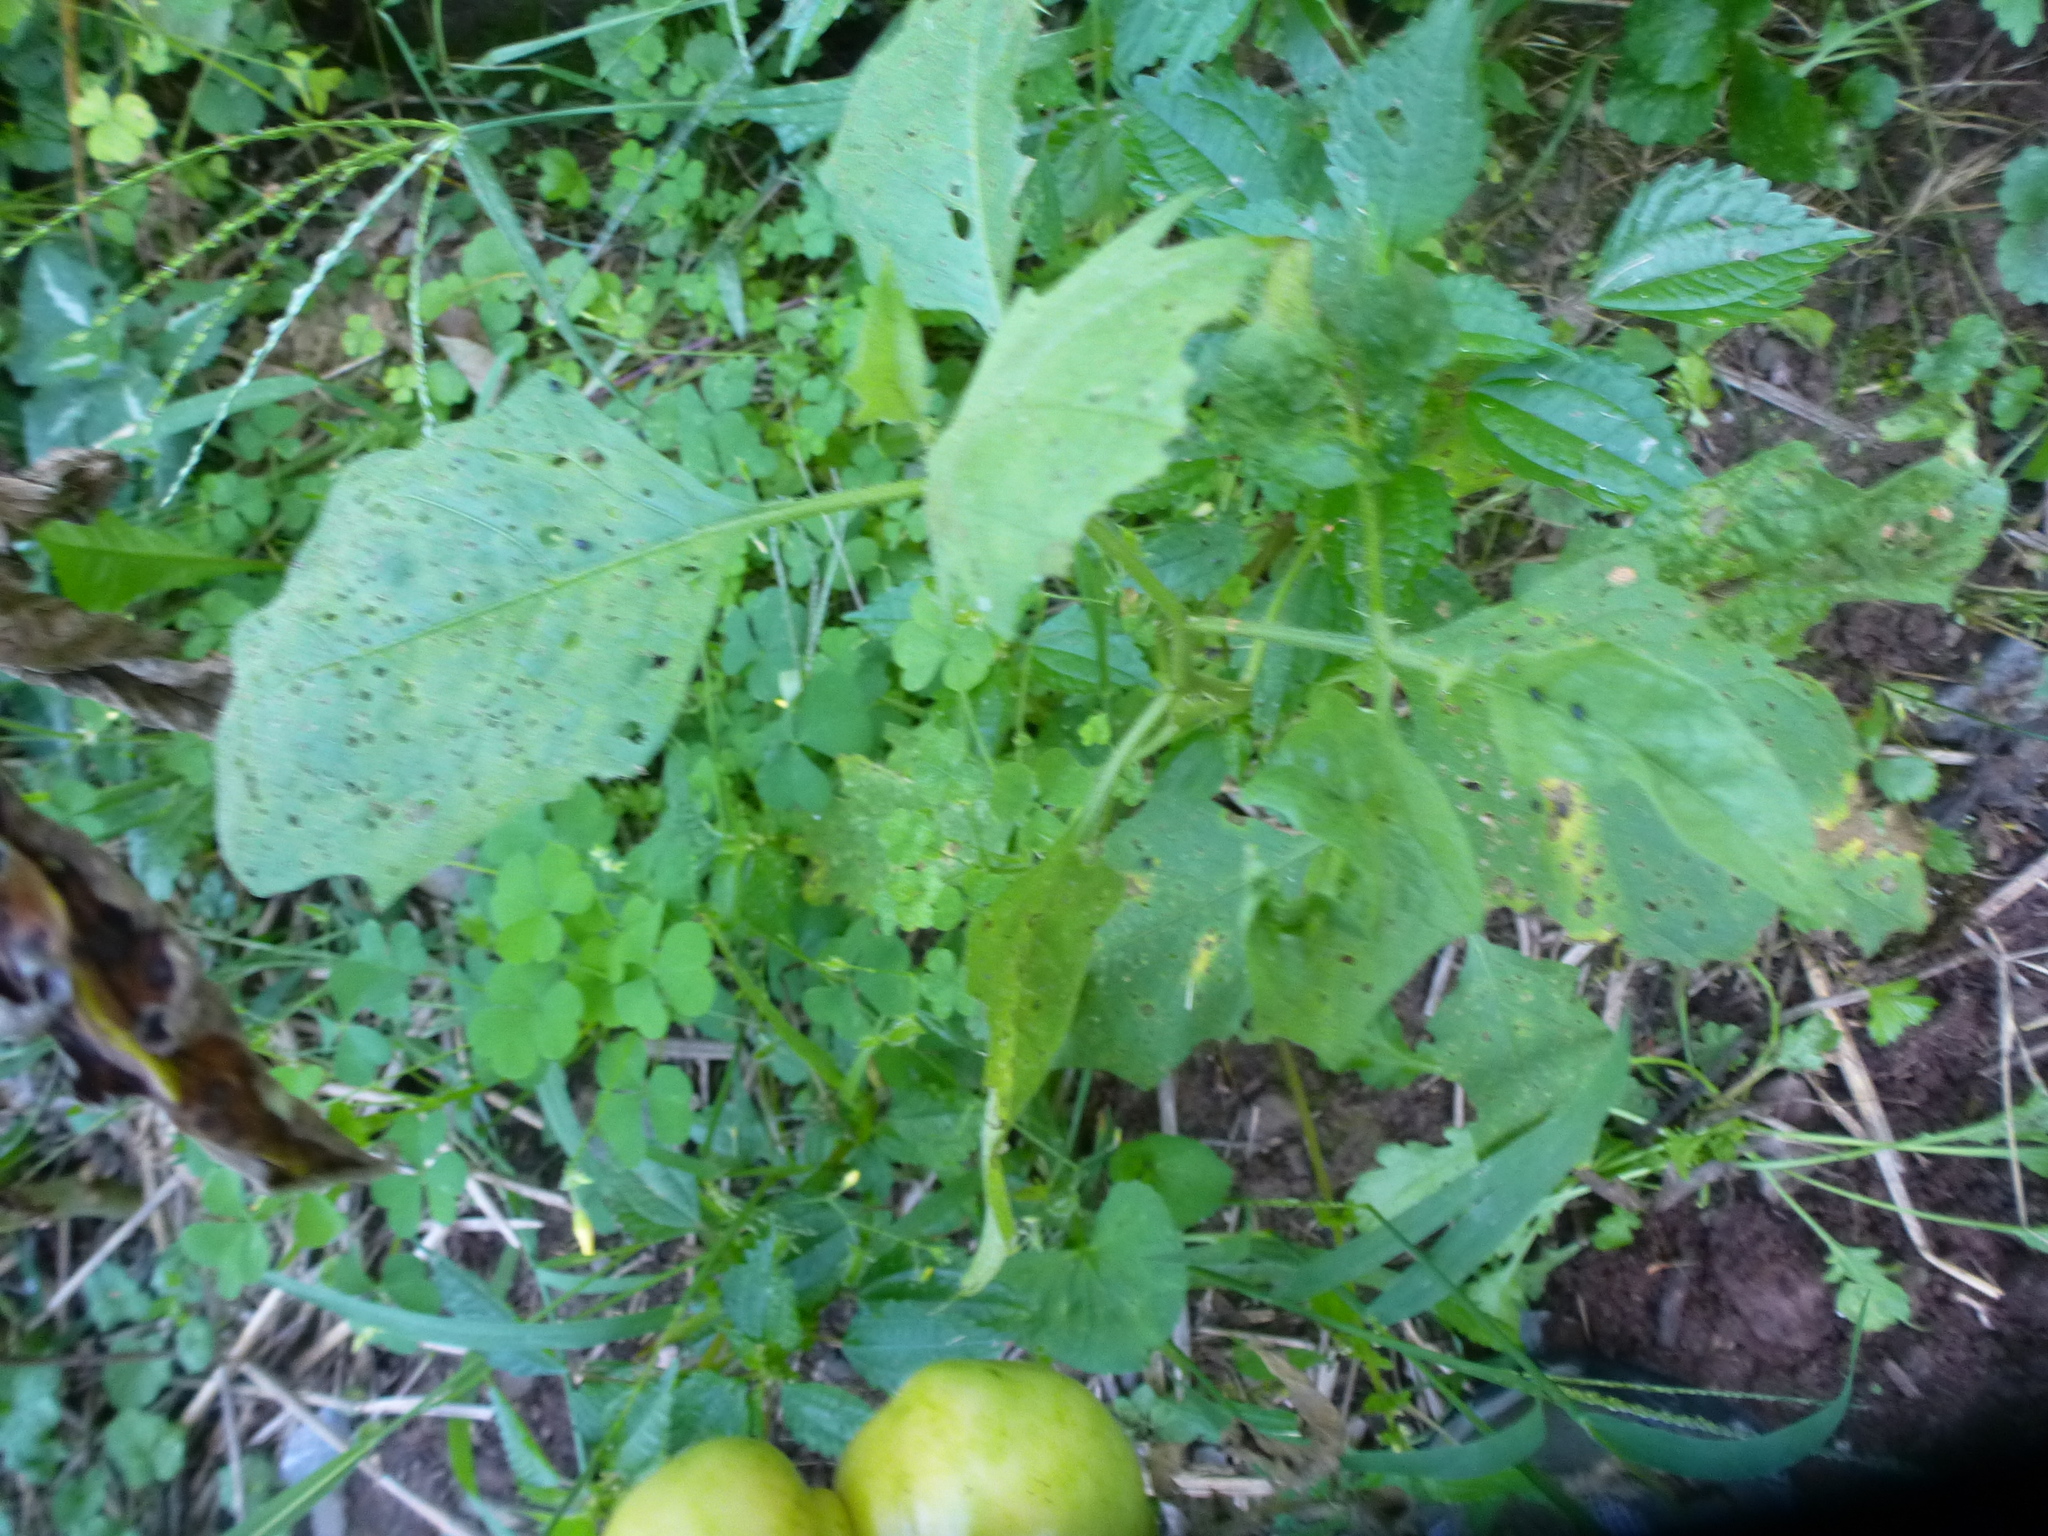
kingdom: Plantae
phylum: Tracheophyta
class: Magnoliopsida
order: Solanales
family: Solanaceae
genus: Solanum
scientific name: Solanum carolinense
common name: Horse-nettle
